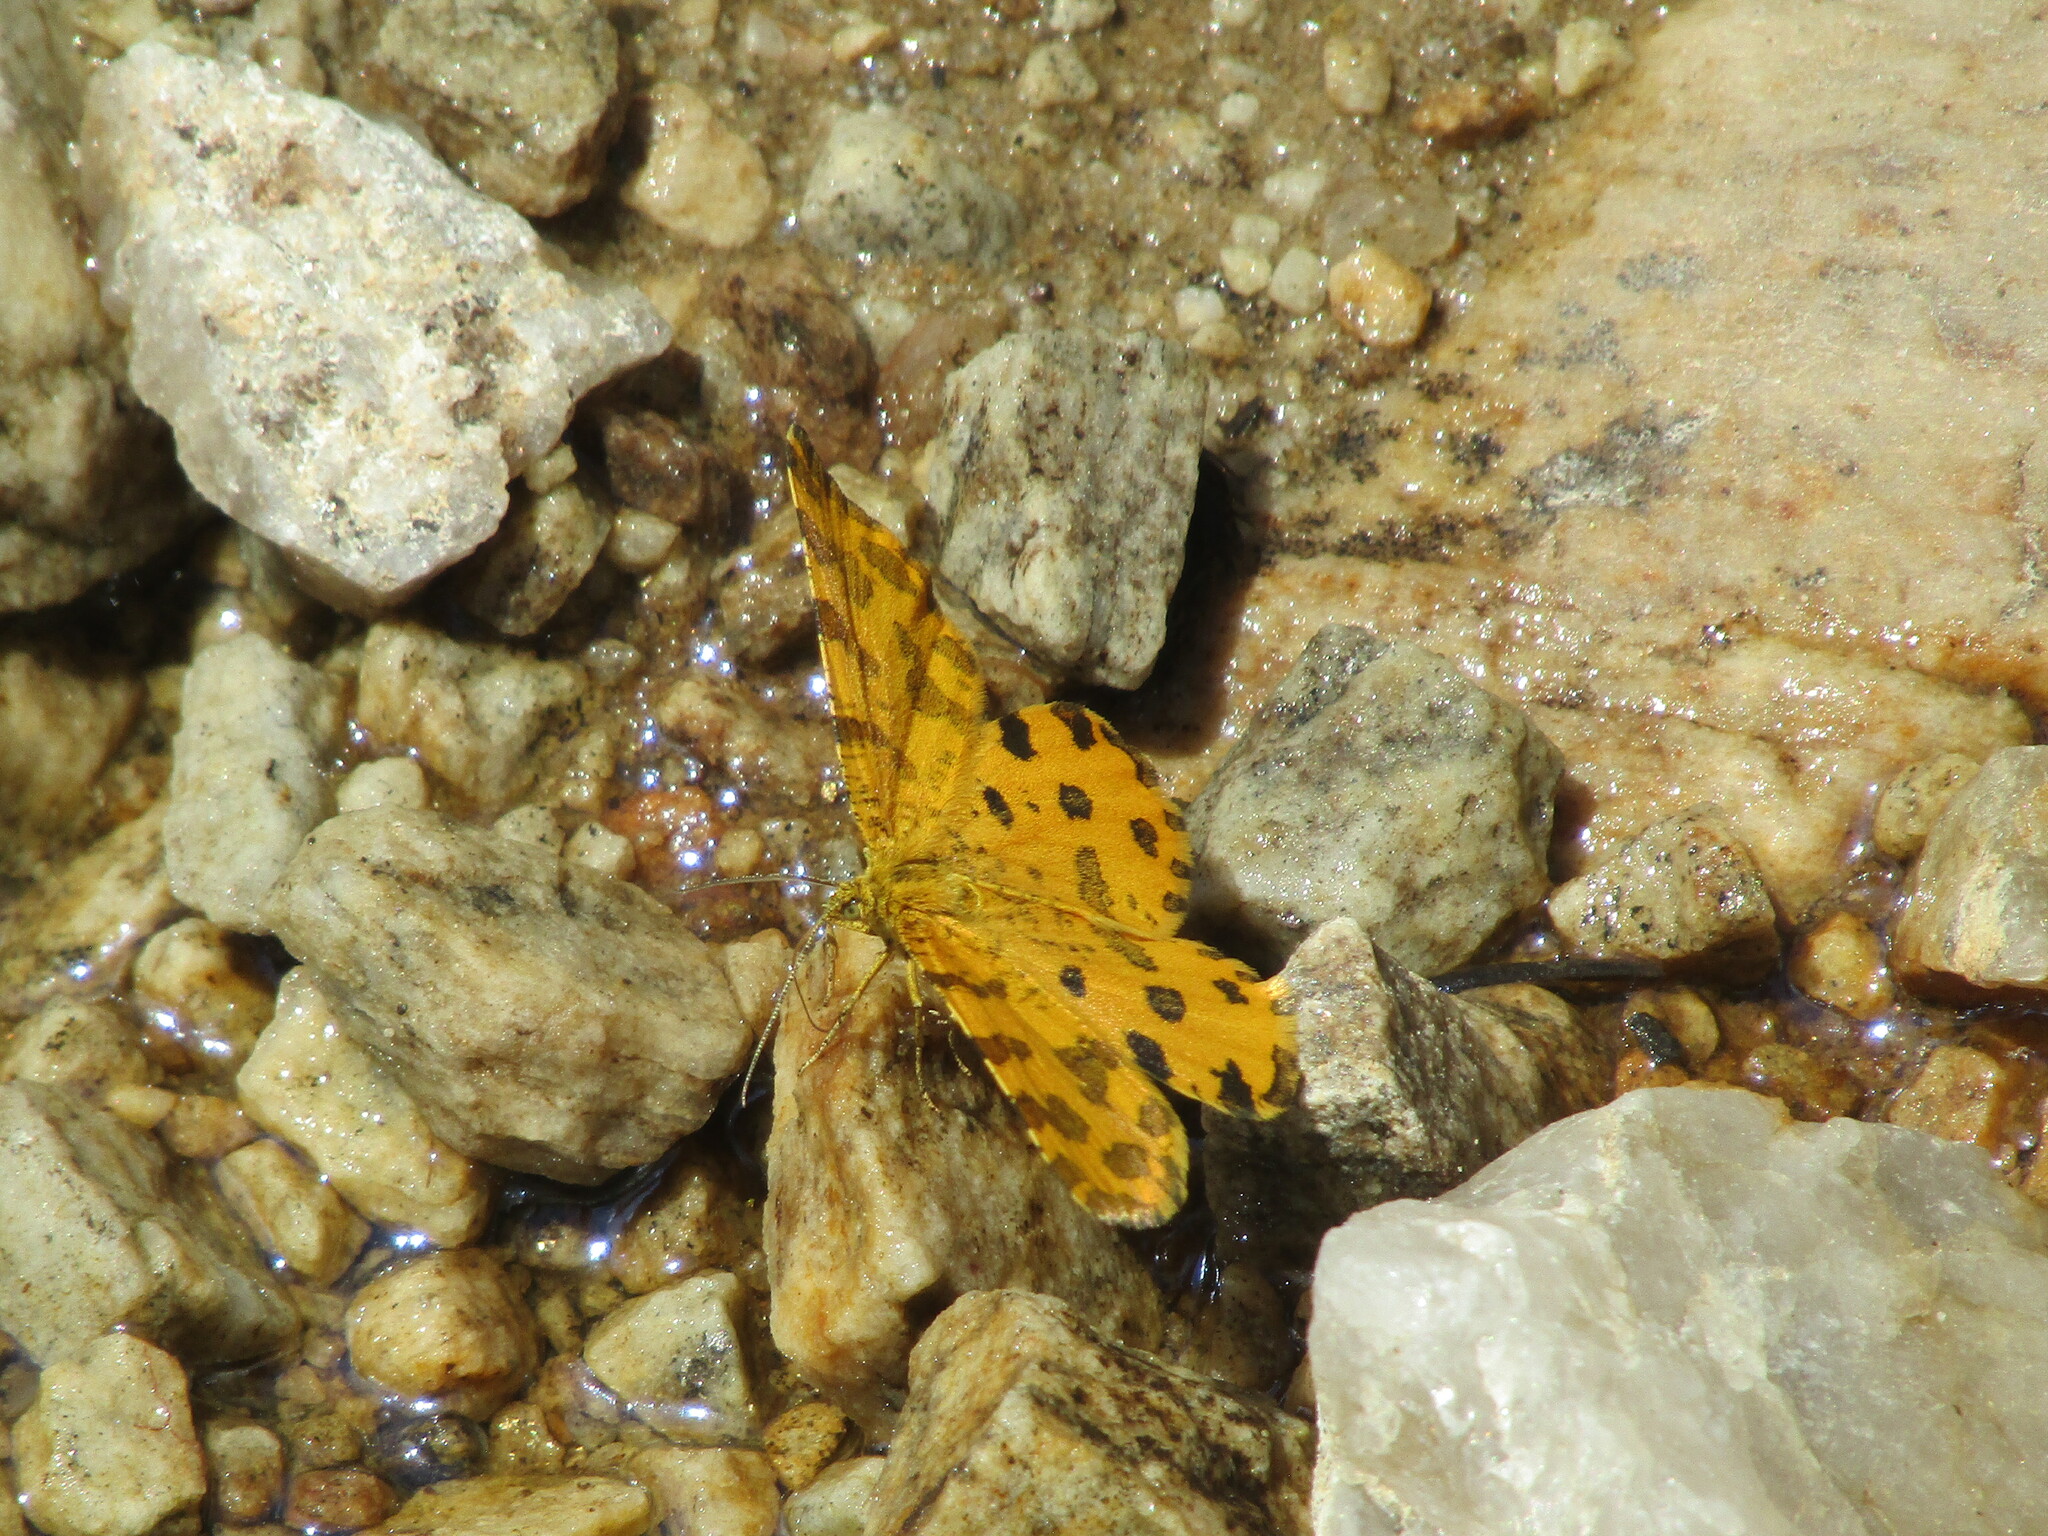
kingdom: Animalia
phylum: Arthropoda
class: Insecta
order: Lepidoptera
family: Geometridae
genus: Pseudopanthera
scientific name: Pseudopanthera macularia
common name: Speckled yellow
